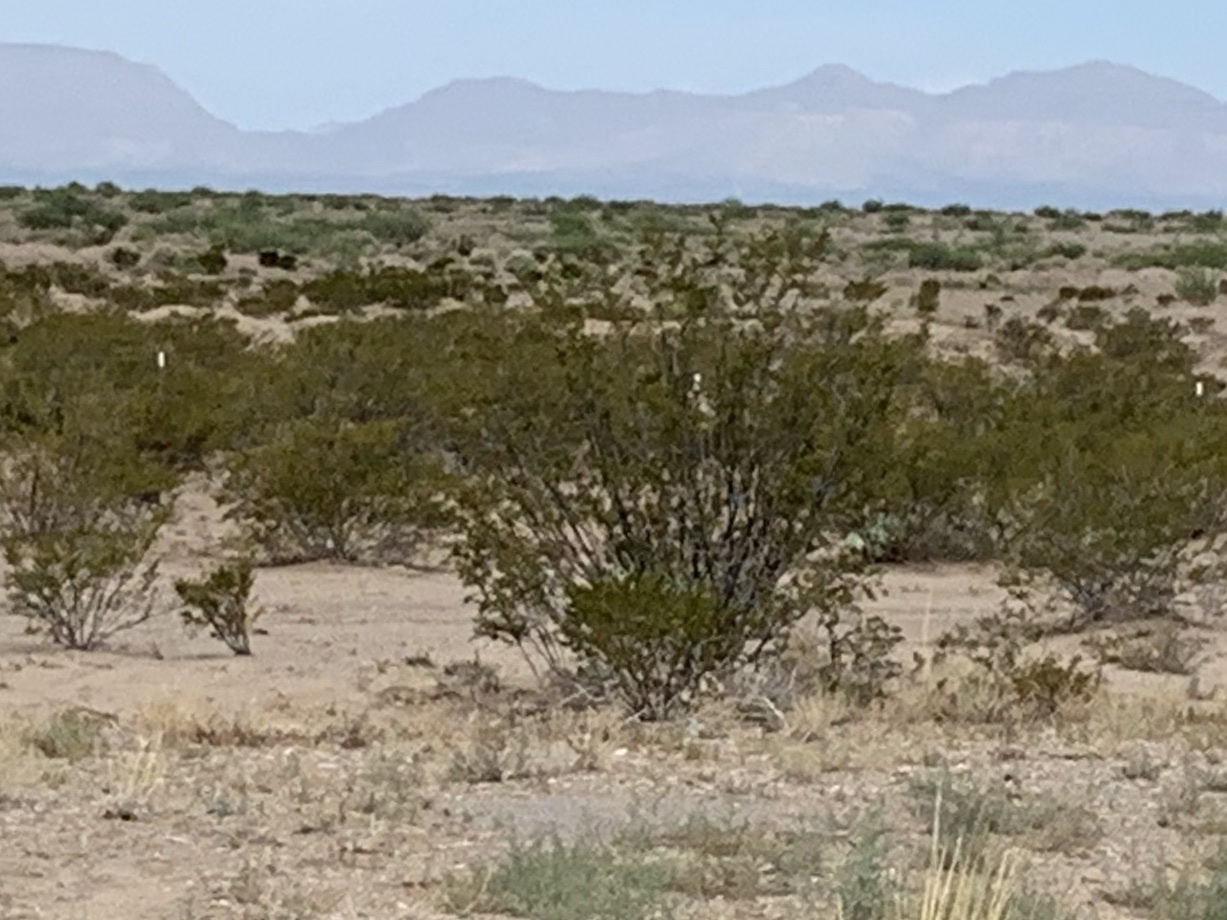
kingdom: Plantae
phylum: Tracheophyta
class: Magnoliopsida
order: Zygophyllales
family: Zygophyllaceae
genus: Larrea
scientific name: Larrea tridentata
